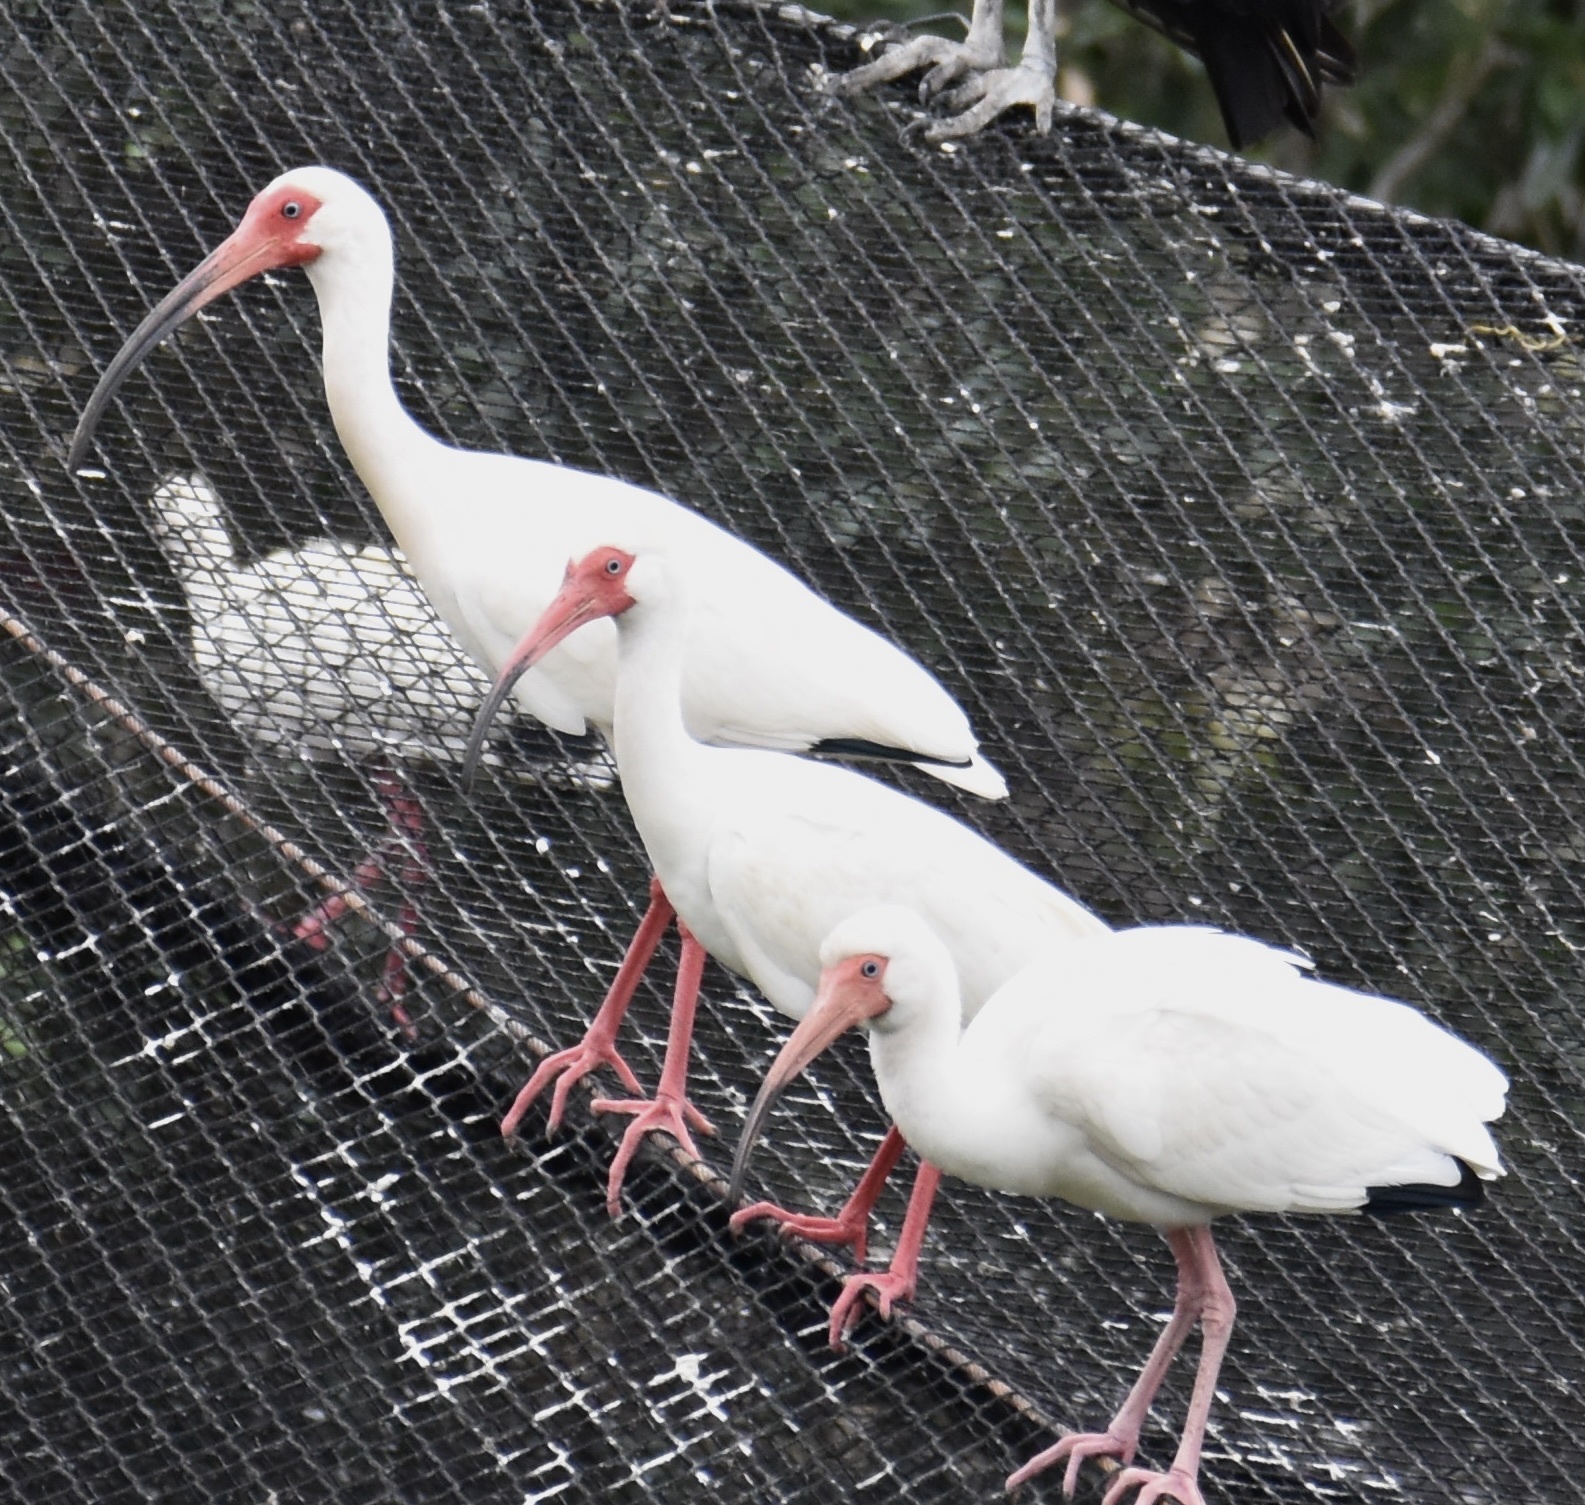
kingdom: Animalia
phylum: Chordata
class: Aves
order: Pelecaniformes
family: Threskiornithidae
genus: Eudocimus
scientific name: Eudocimus albus
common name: White ibis
